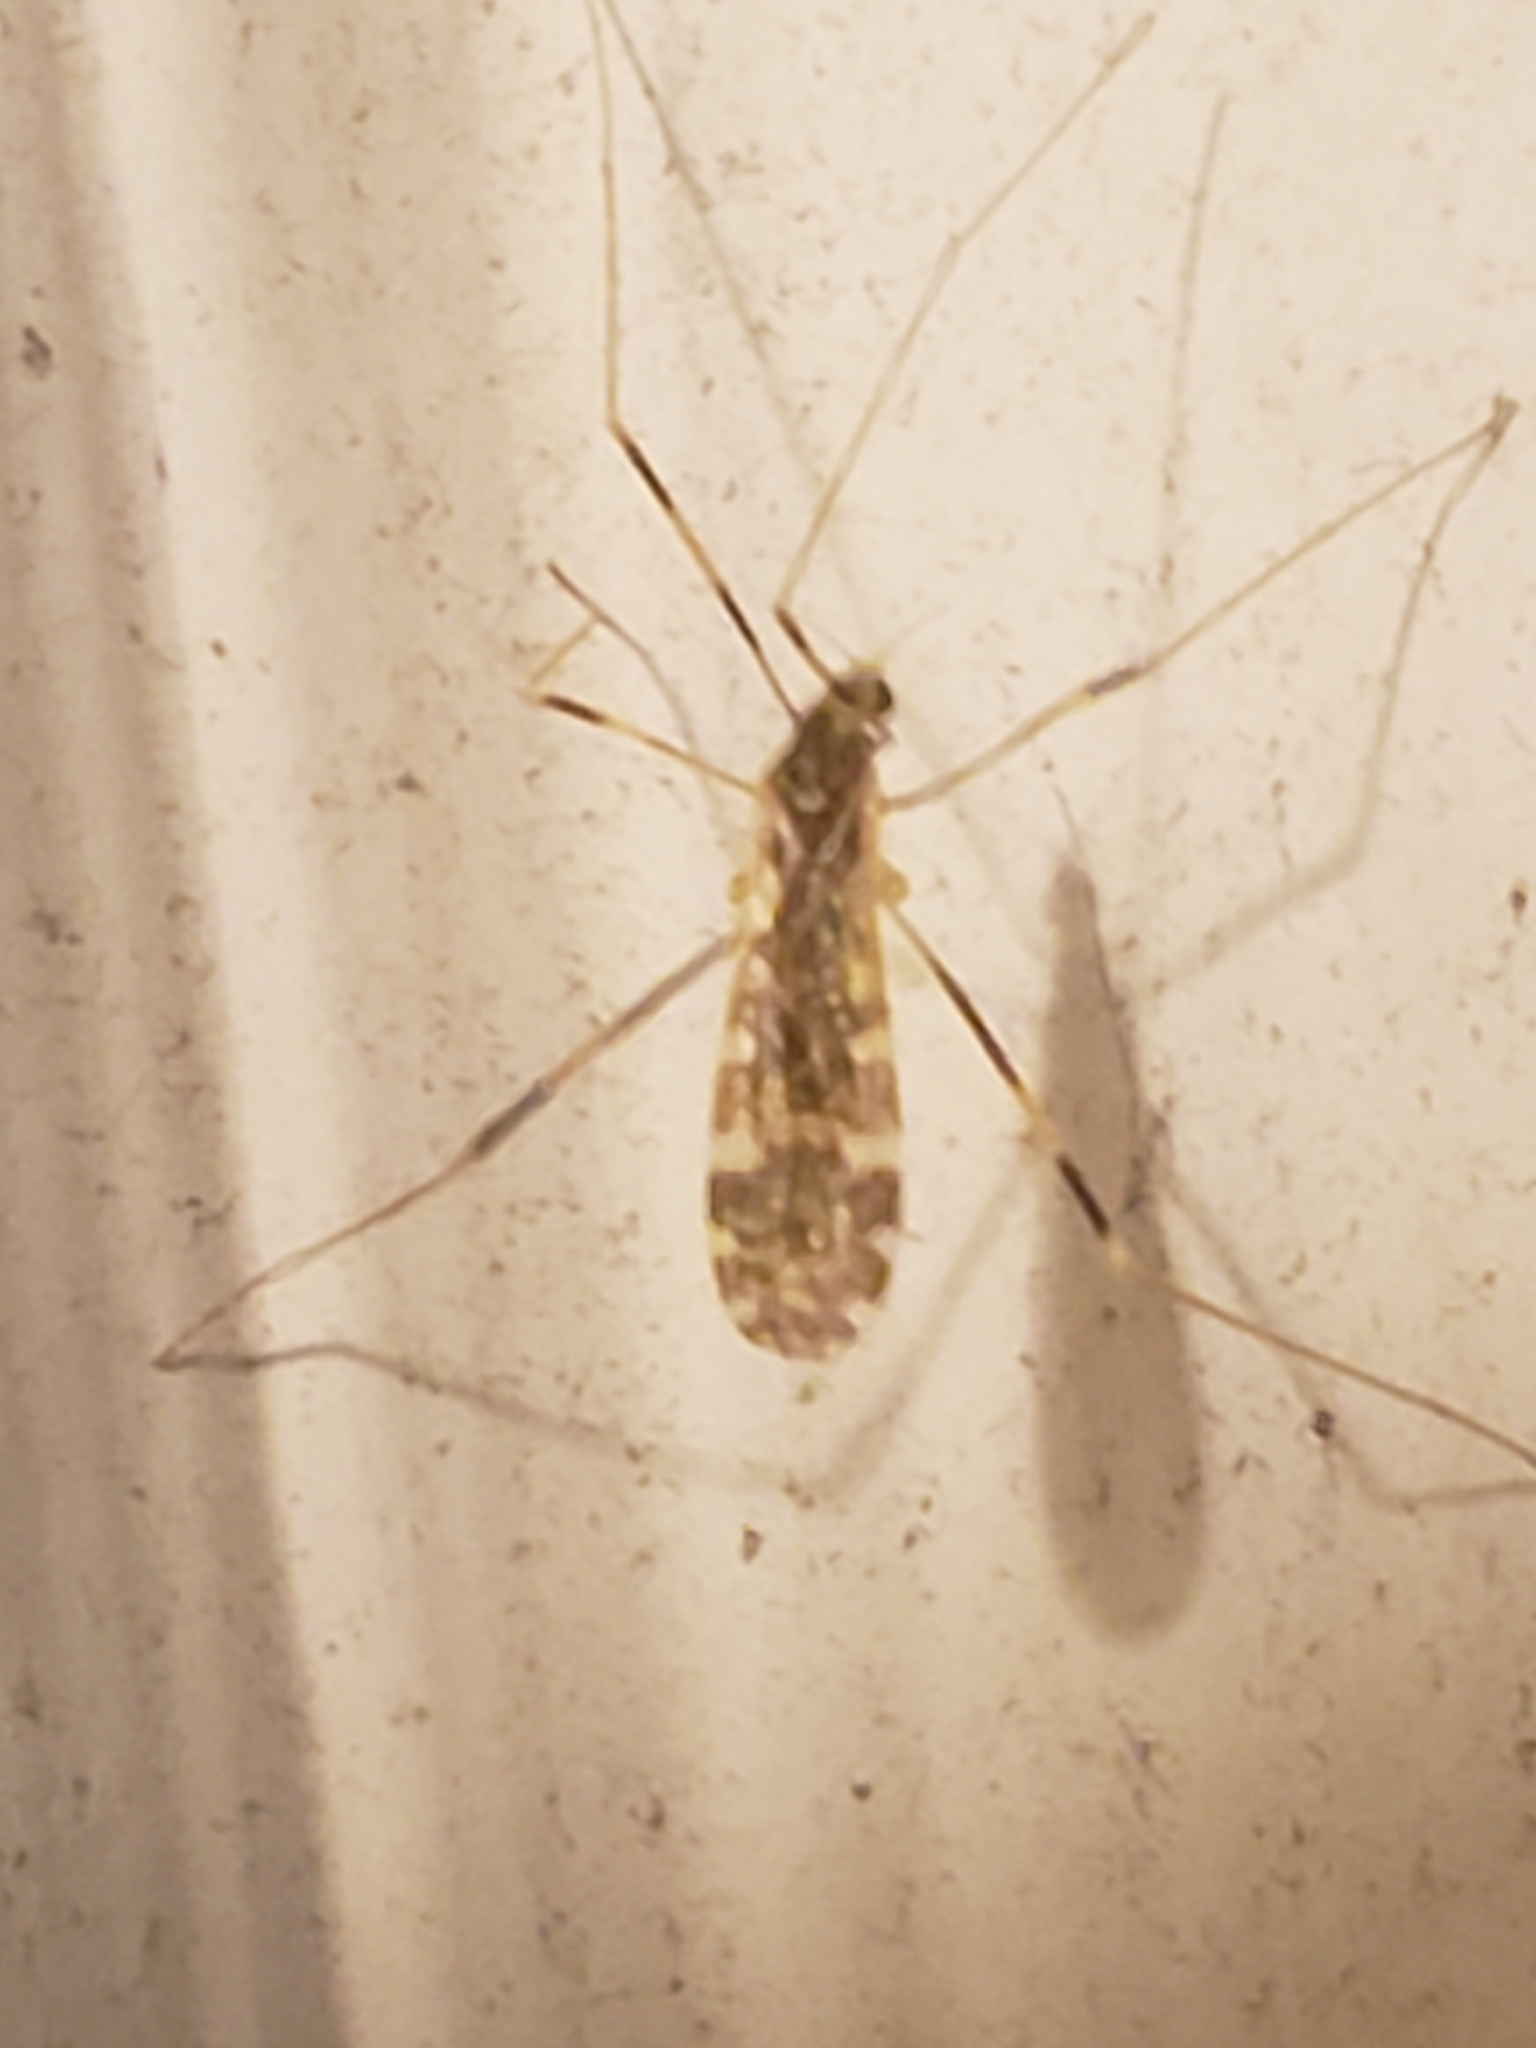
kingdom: Animalia
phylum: Arthropoda
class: Insecta
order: Diptera
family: Limoniidae
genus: Erioptera
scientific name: Erioptera caliptera
